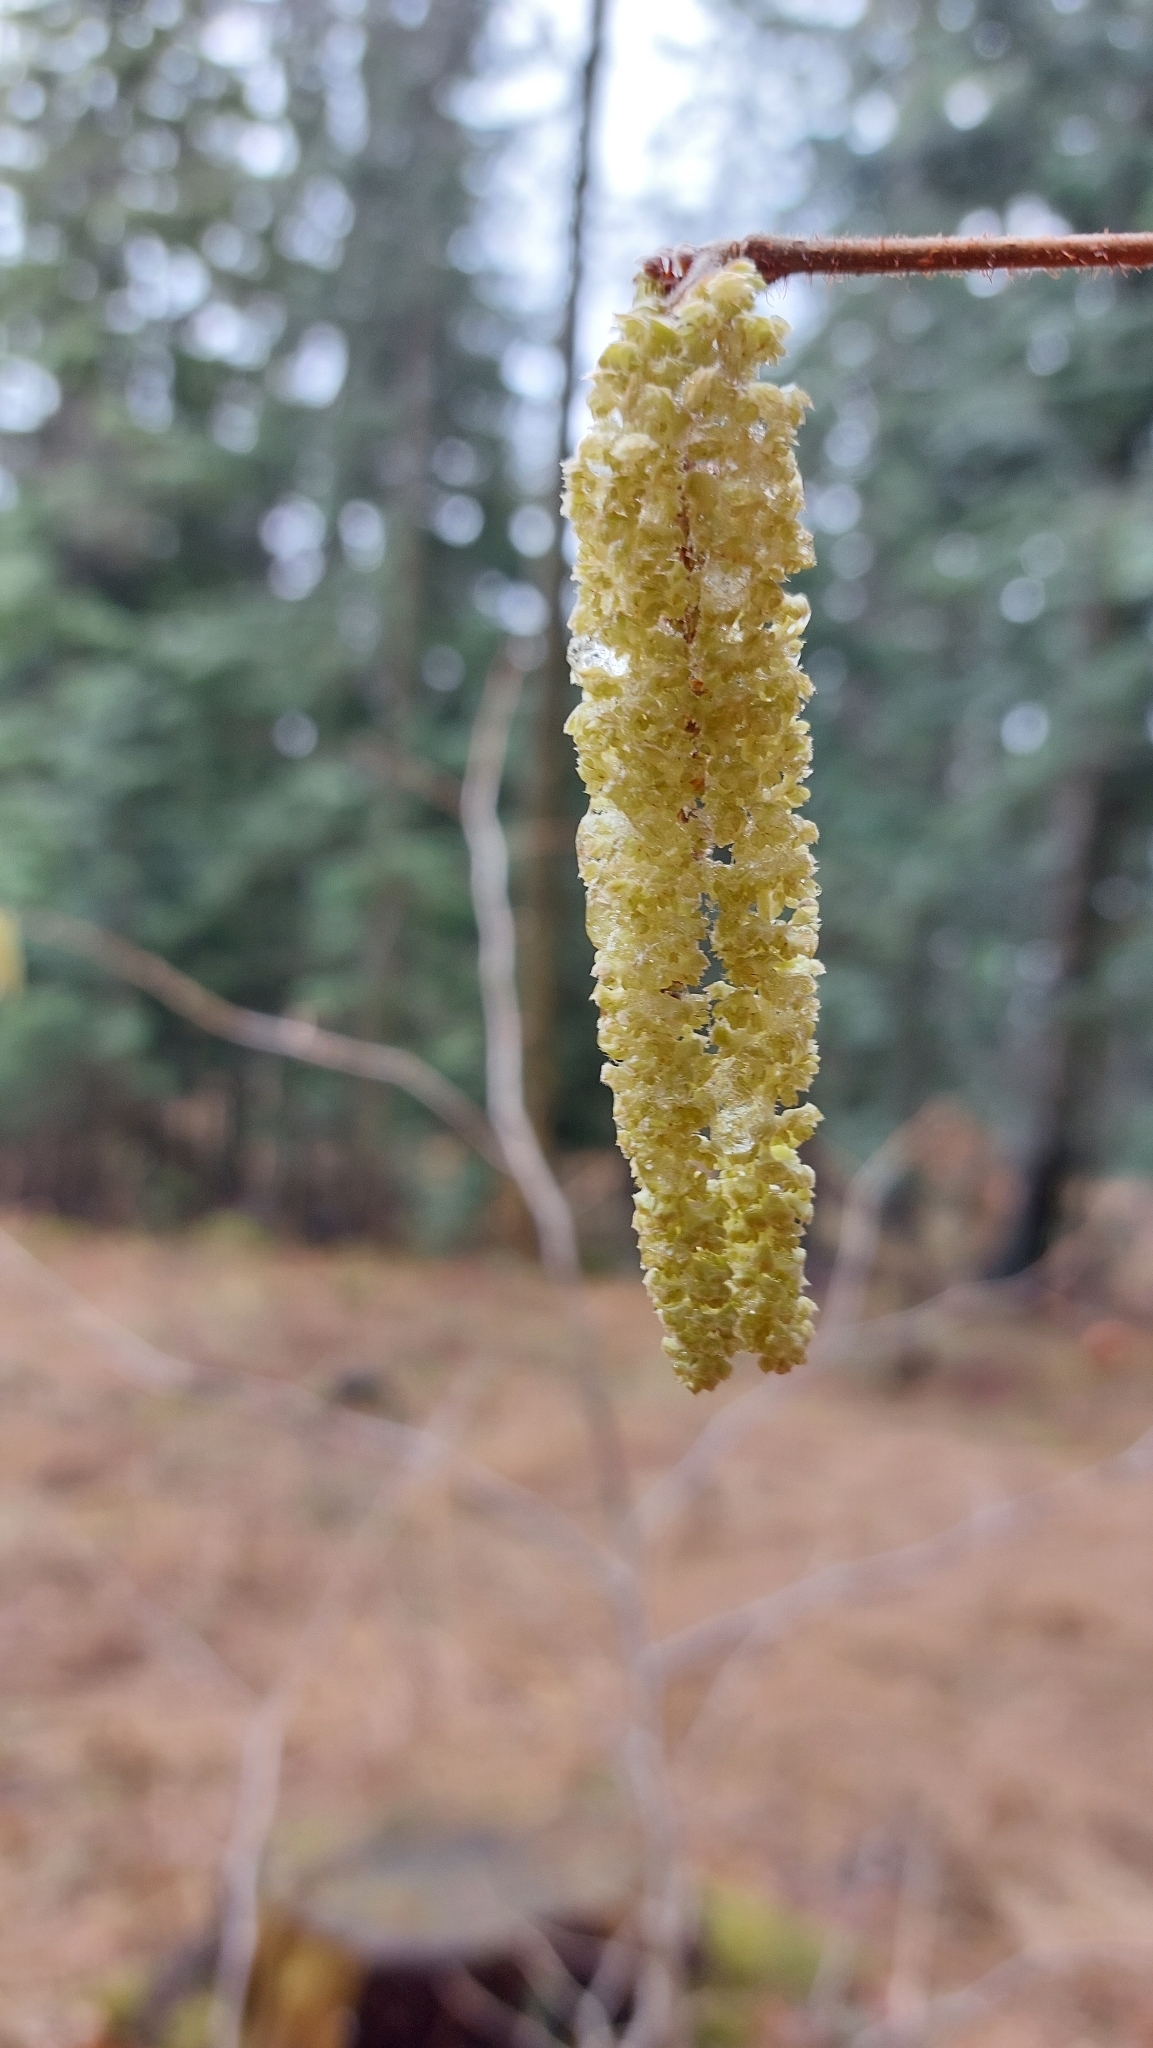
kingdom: Plantae
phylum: Tracheophyta
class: Magnoliopsida
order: Fagales
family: Betulaceae
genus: Corylus
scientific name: Corylus avellana
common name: European hazel
